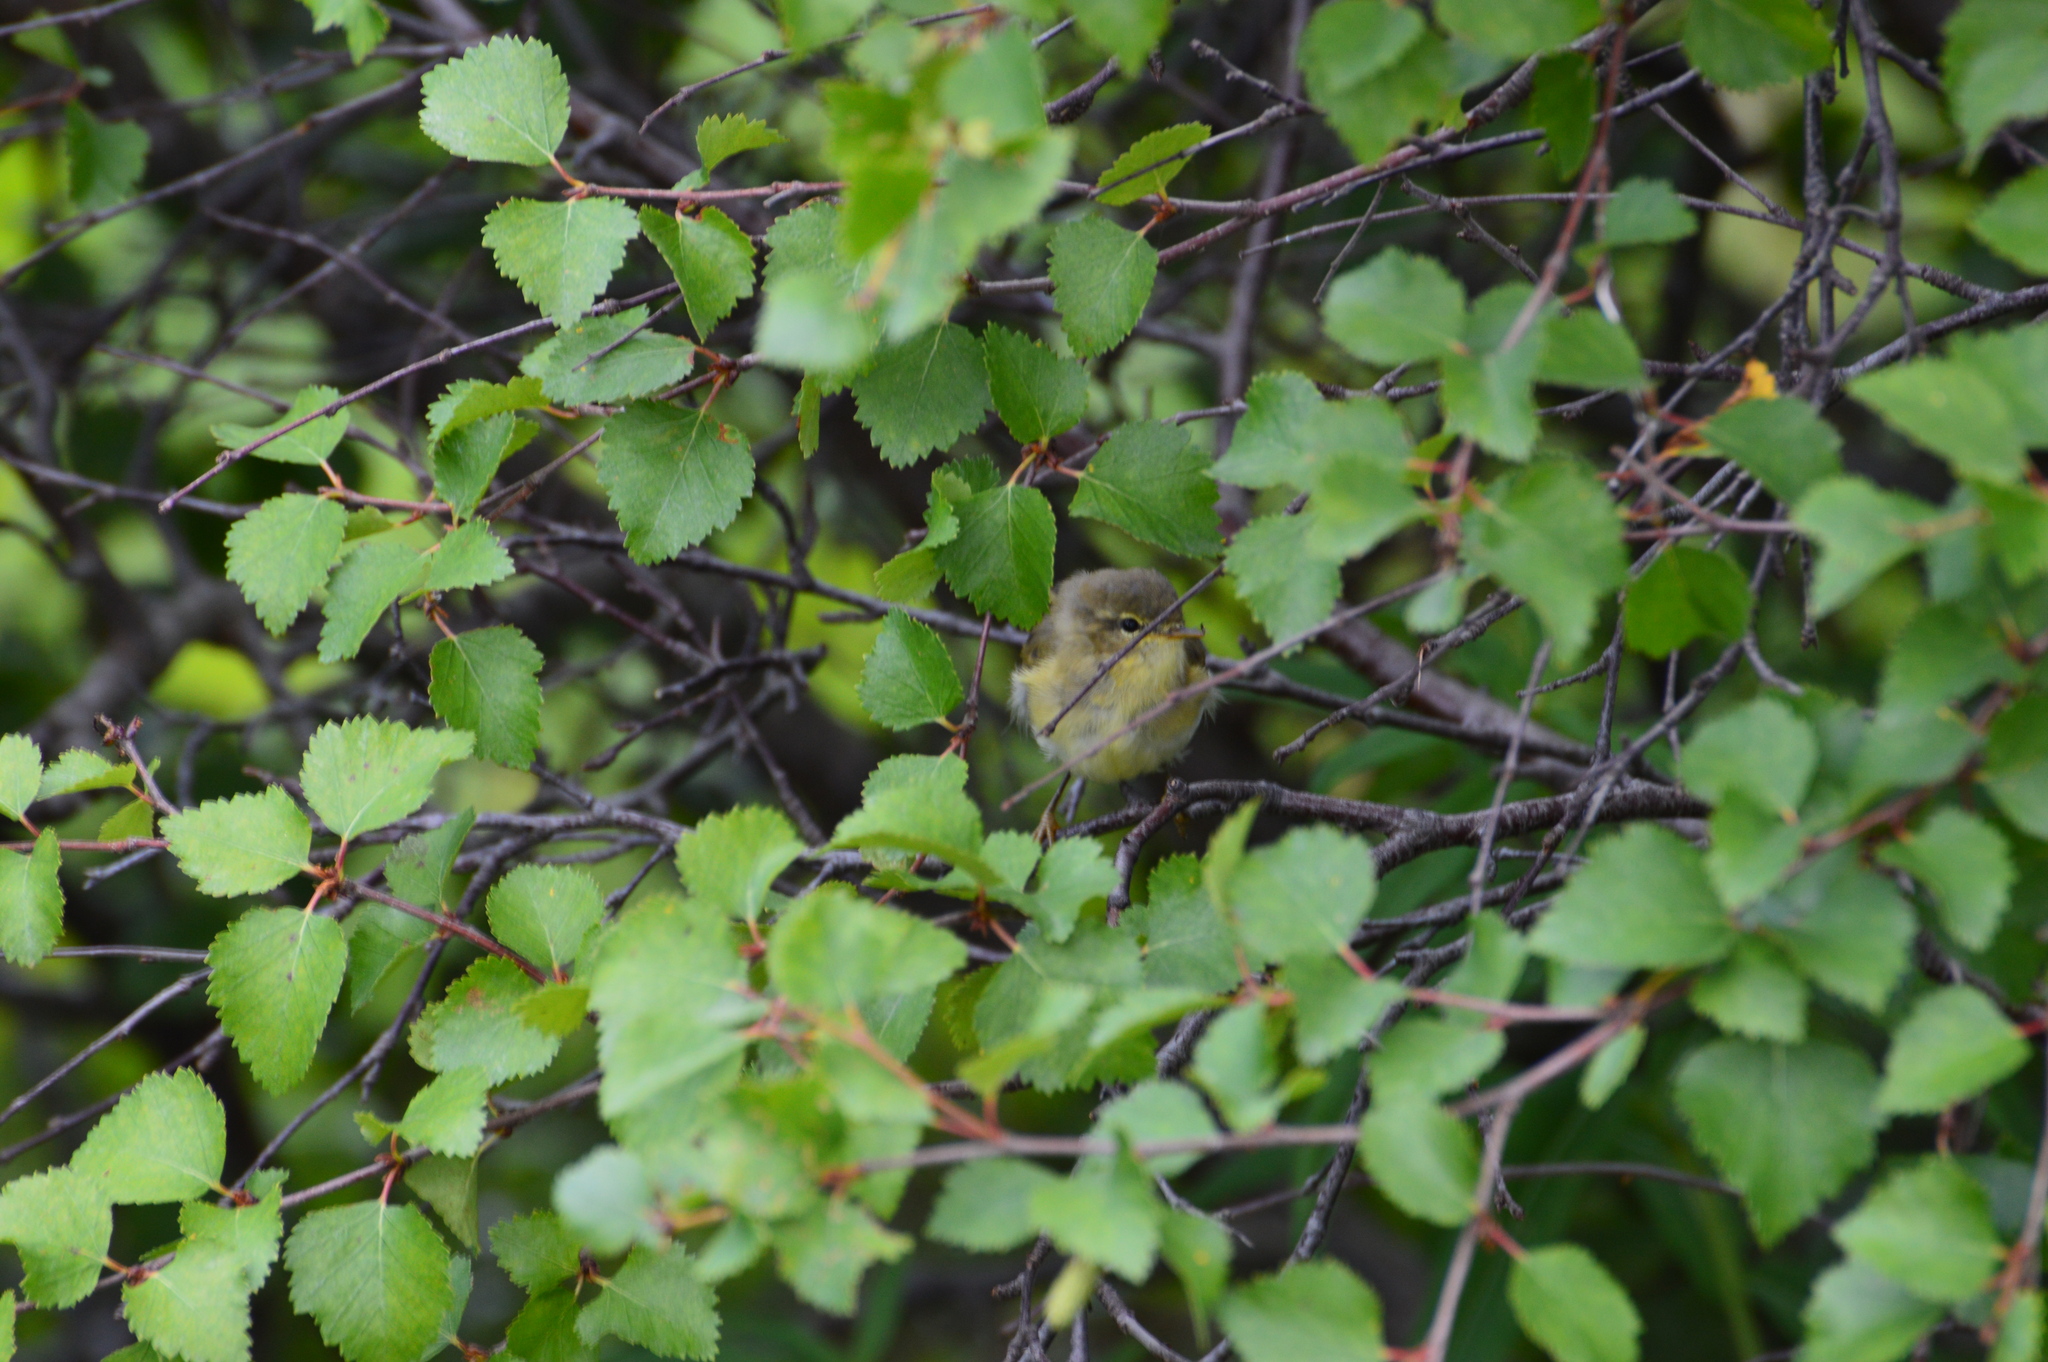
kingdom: Animalia
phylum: Chordata
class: Aves
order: Passeriformes
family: Phylloscopidae
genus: Phylloscopus
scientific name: Phylloscopus trochilus
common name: Willow warbler
